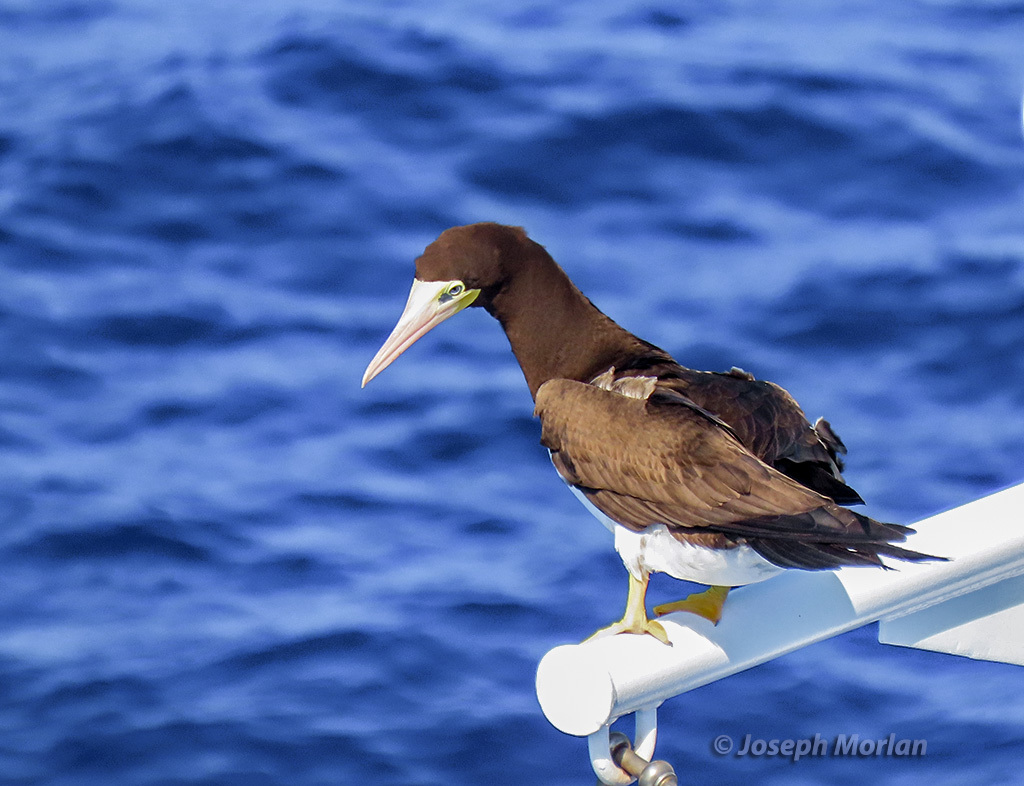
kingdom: Animalia
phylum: Chordata
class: Aves
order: Suliformes
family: Sulidae
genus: Sula
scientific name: Sula leucogaster
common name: Brown booby
